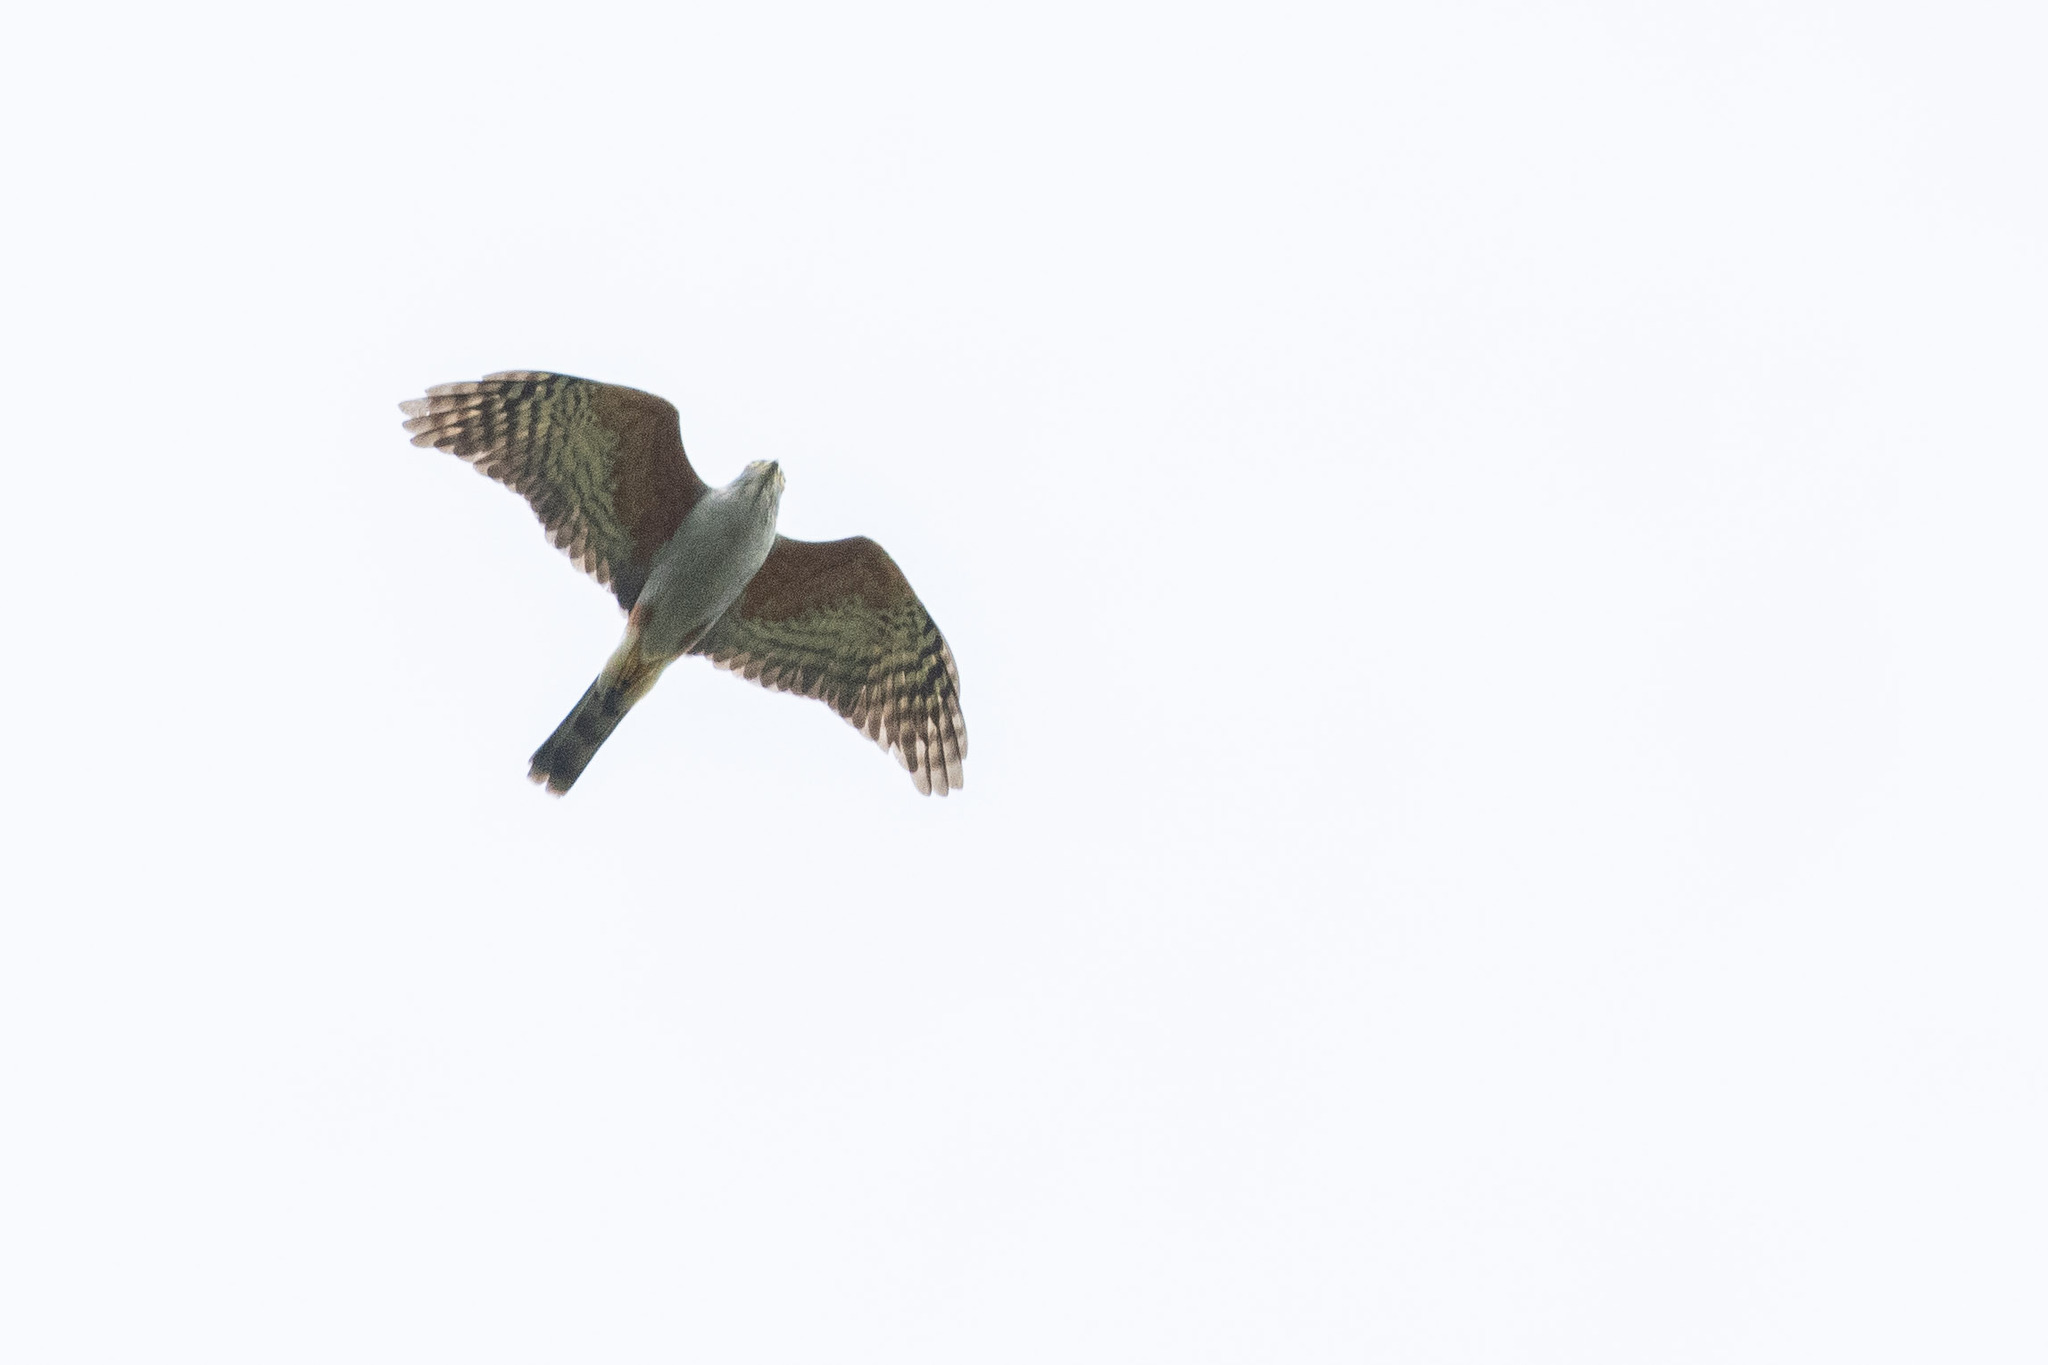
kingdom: Animalia
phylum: Chordata
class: Aves
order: Accipitriformes
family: Accipitridae
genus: Harpagus
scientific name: Harpagus diodon
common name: Rufous-thighed kite
